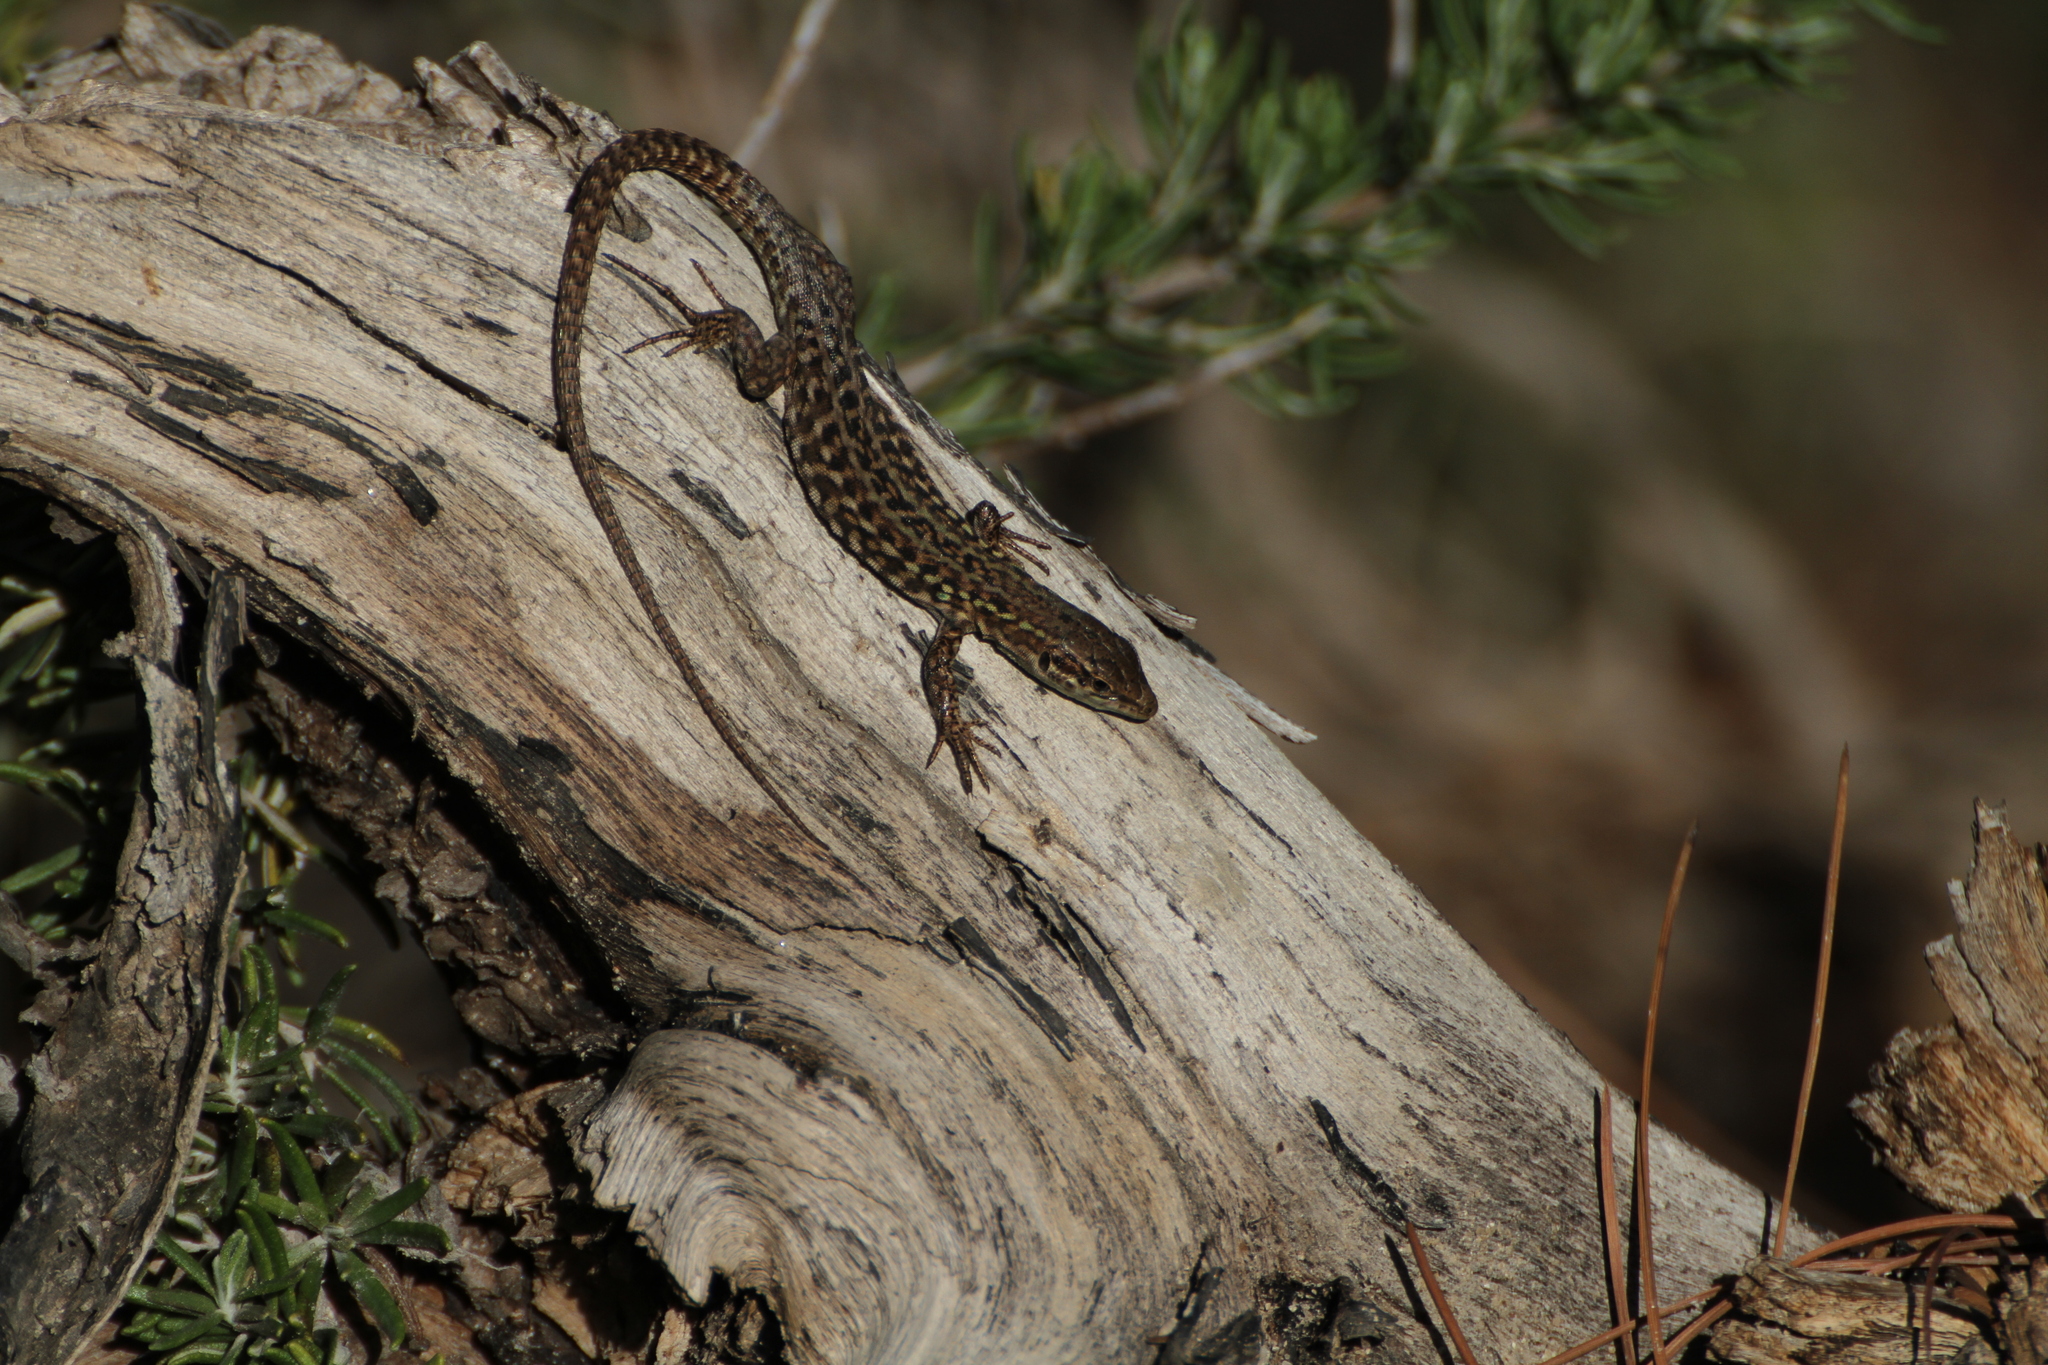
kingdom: Animalia
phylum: Chordata
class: Squamata
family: Lacertidae
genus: Podarcis
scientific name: Podarcis siculus
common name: Italian wall lizard
